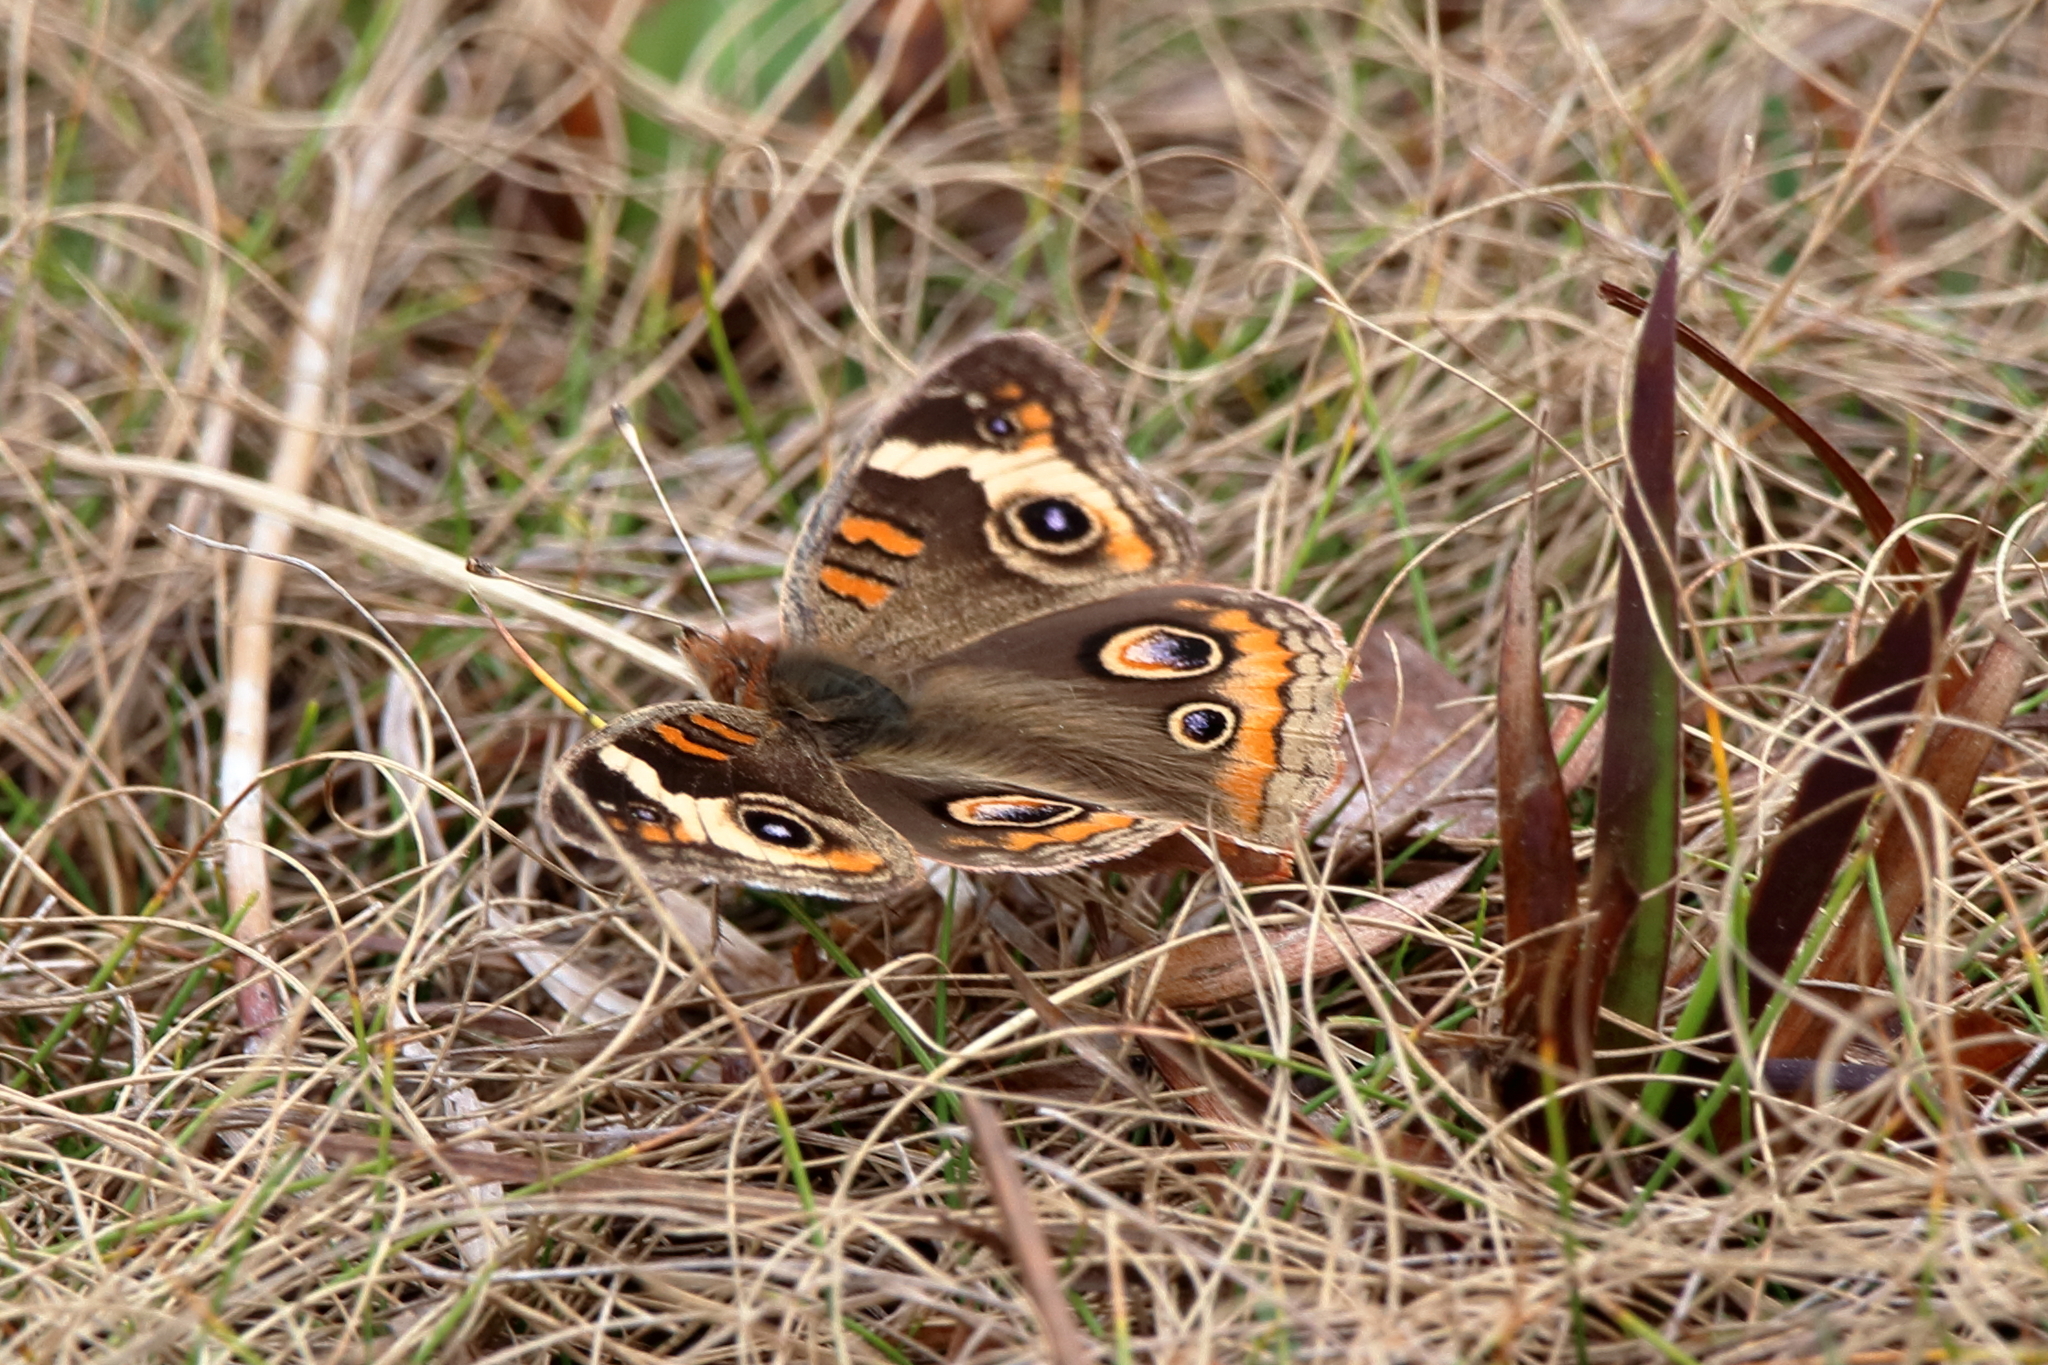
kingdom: Animalia
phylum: Arthropoda
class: Insecta
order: Lepidoptera
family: Nymphalidae
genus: Junonia
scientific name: Junonia coenia
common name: Common buckeye
